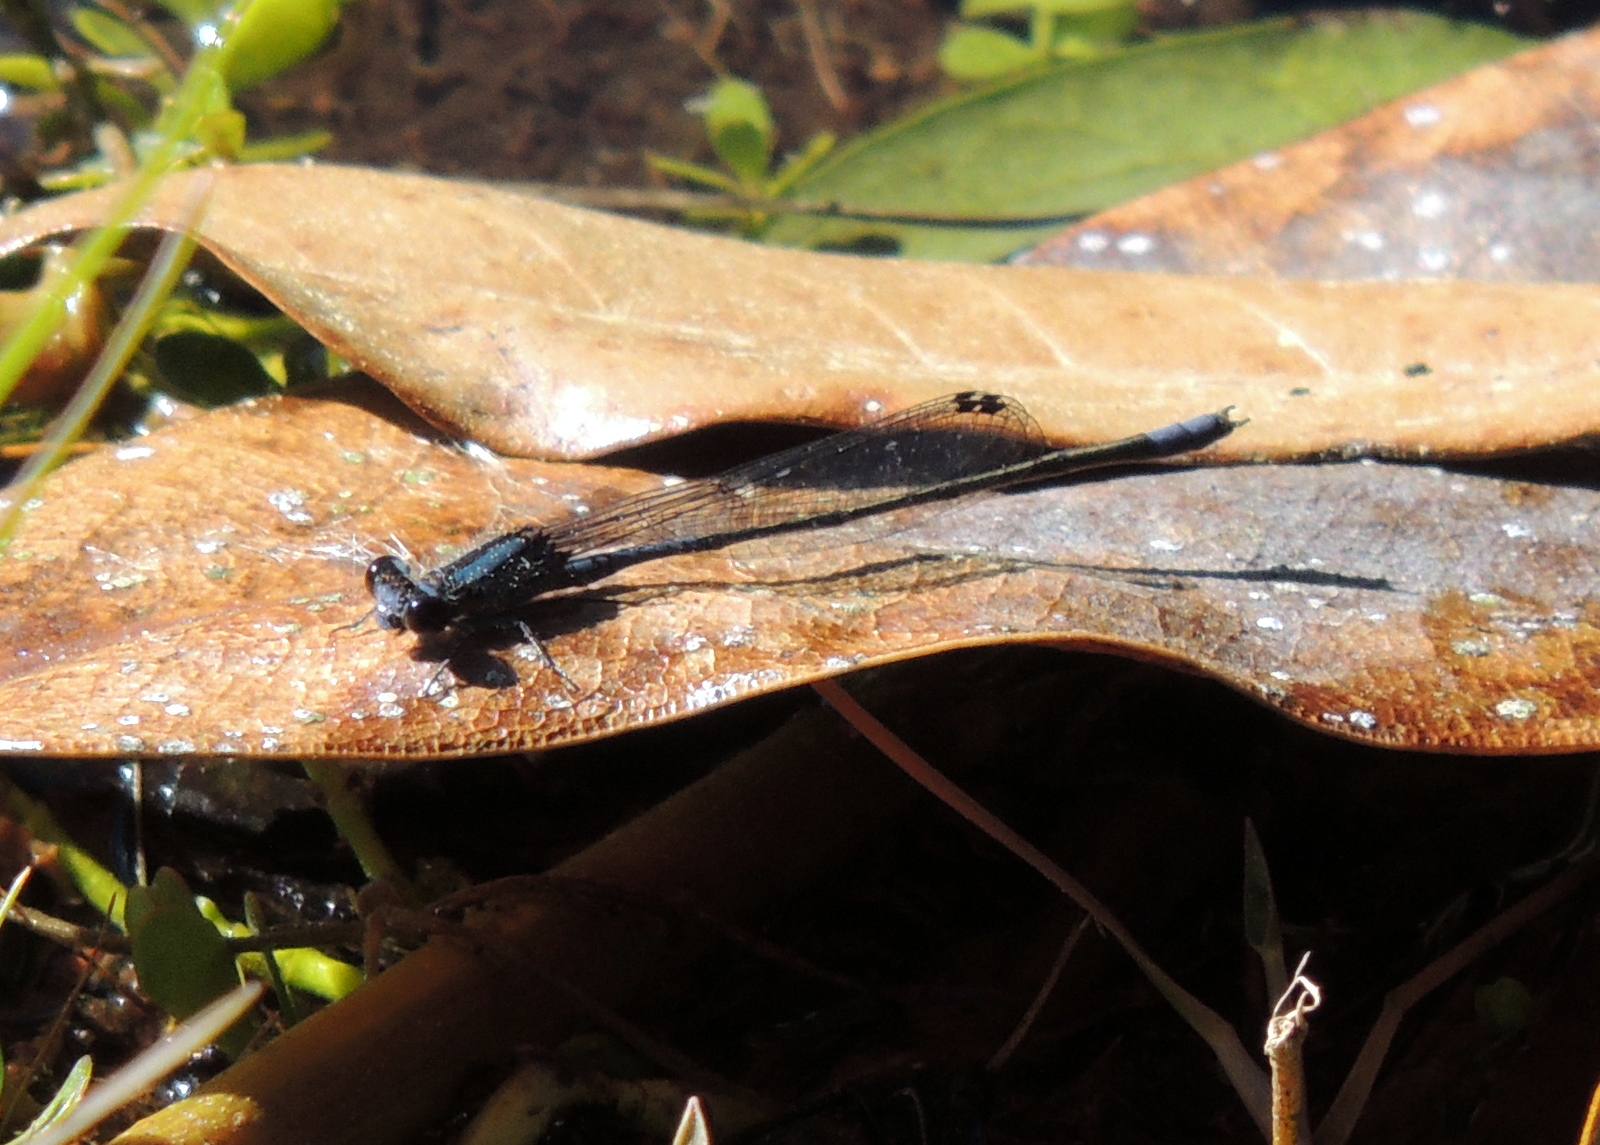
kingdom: Animalia
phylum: Arthropoda
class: Insecta
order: Odonata
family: Coenagrionidae
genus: Enallagma
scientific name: Enallagma cardenium
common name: Purple bluet
